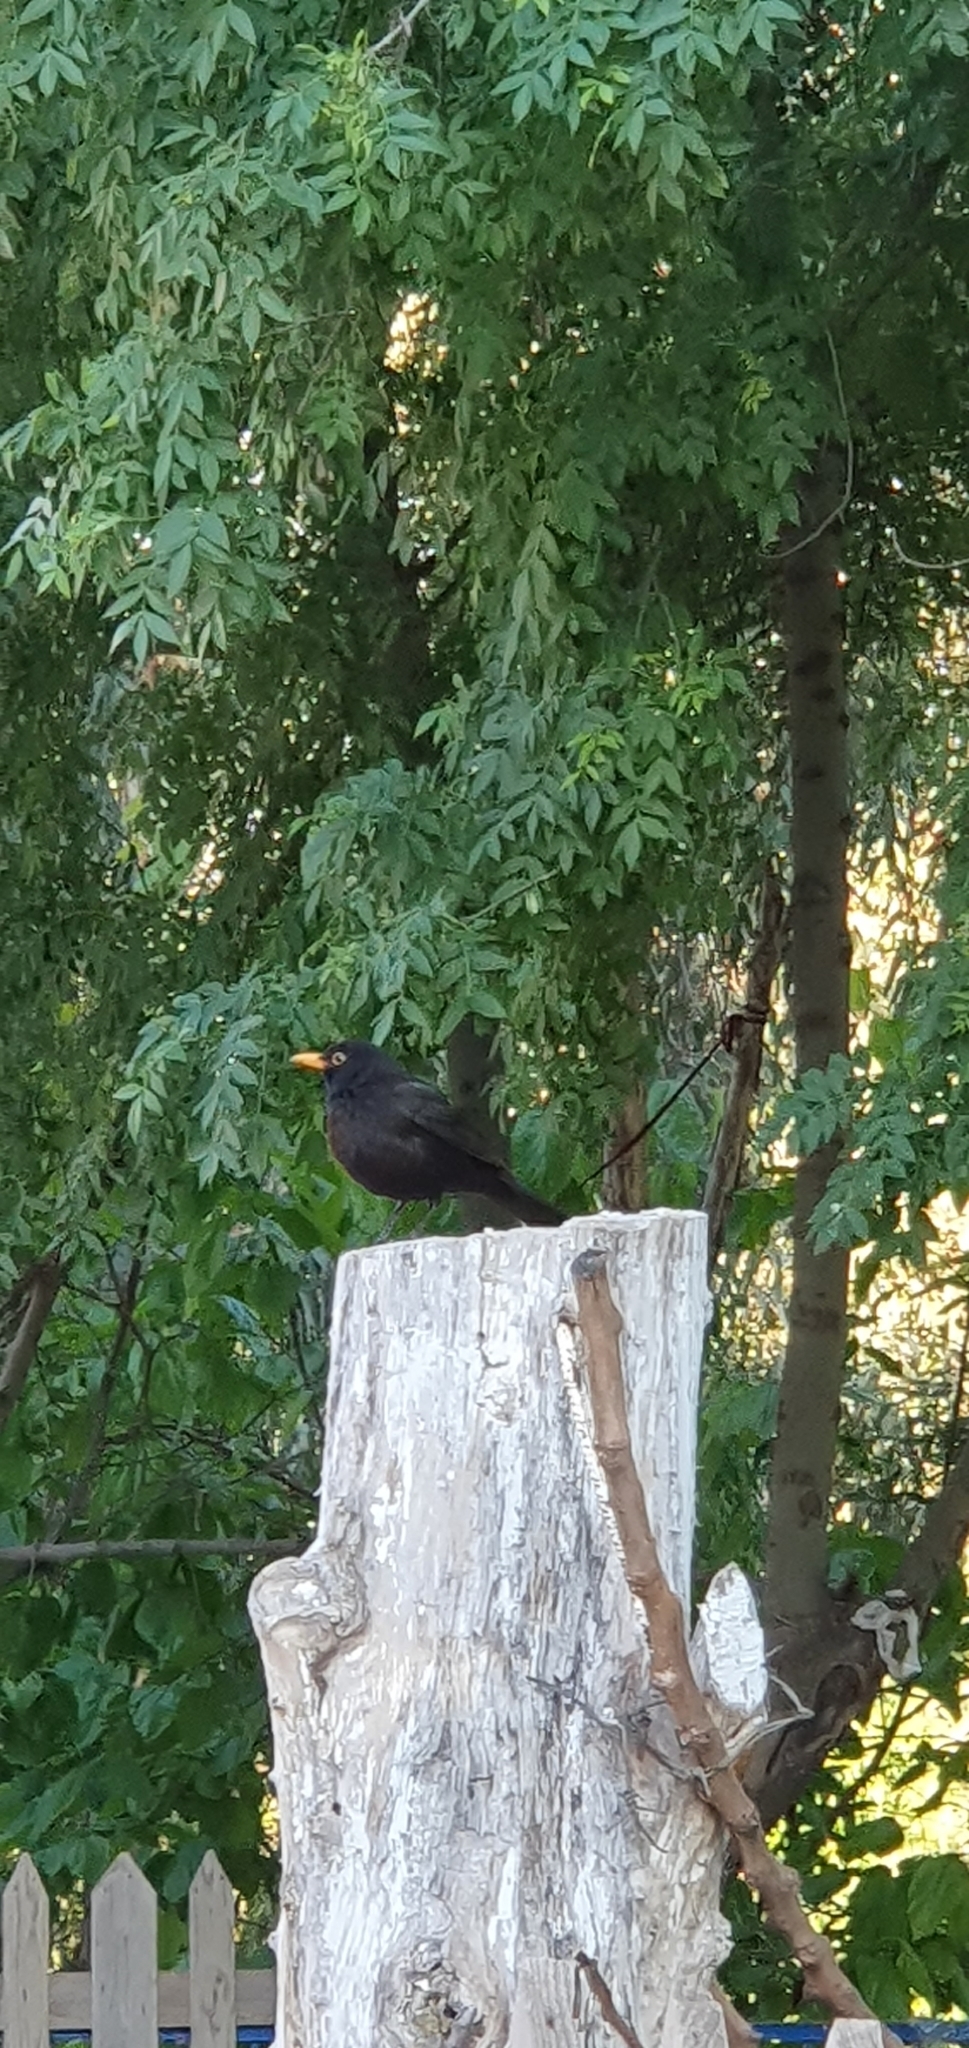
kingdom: Animalia
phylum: Chordata
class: Aves
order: Passeriformes
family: Turdidae
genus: Turdus
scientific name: Turdus merula
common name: Common blackbird
